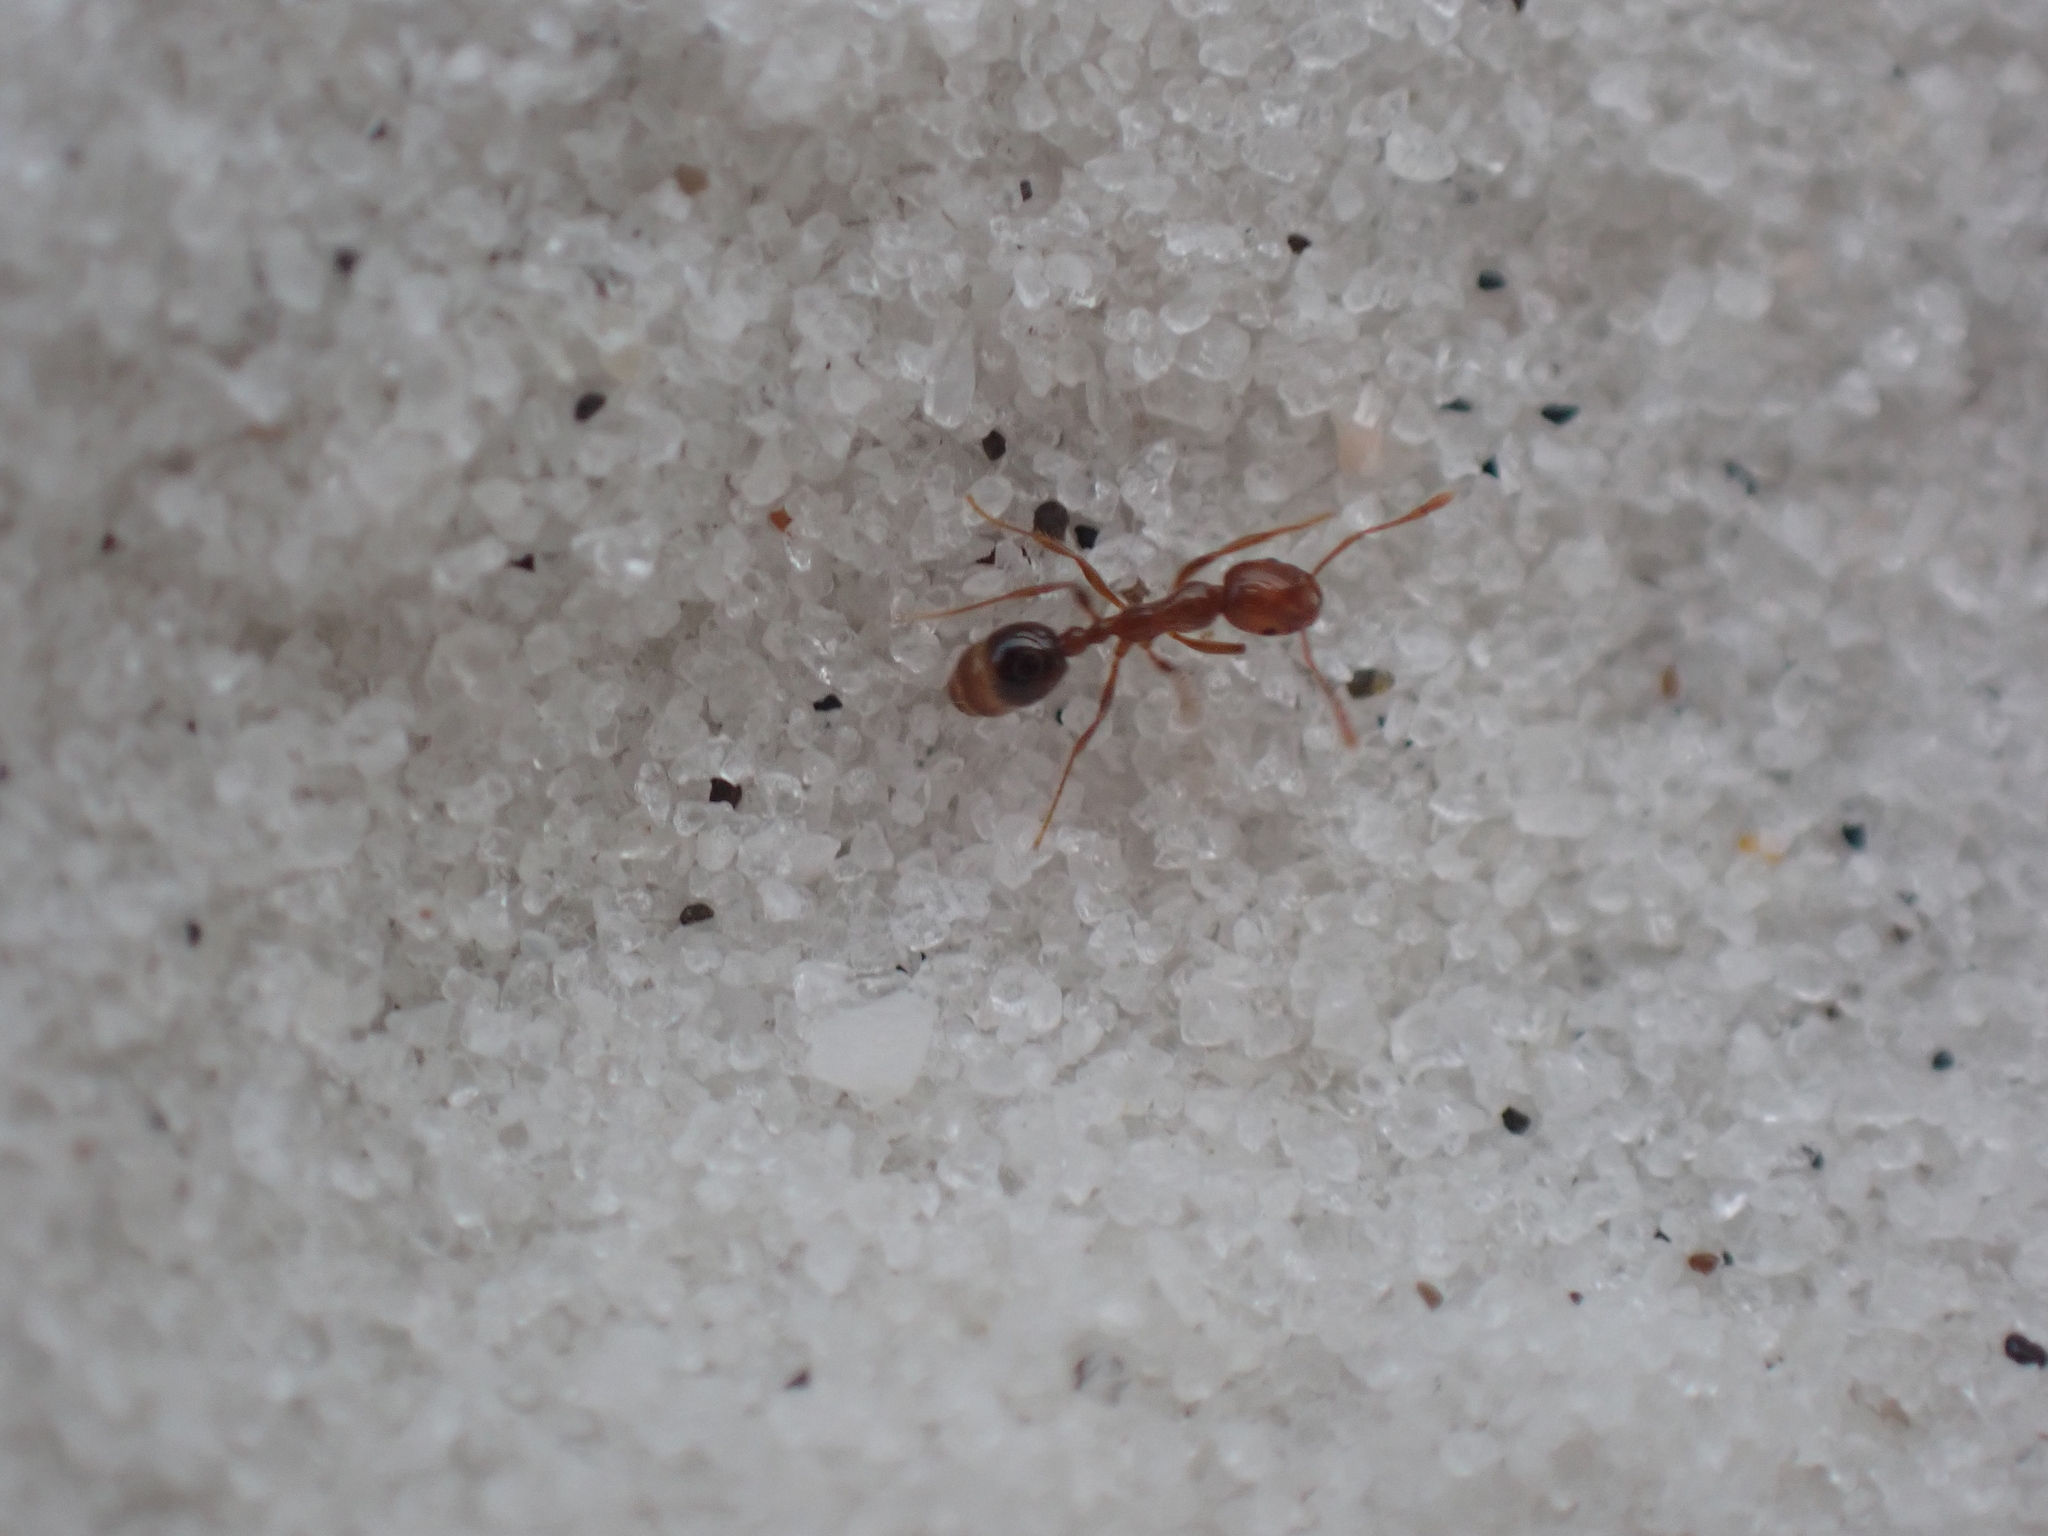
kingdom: Animalia
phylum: Arthropoda
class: Insecta
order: Hymenoptera
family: Formicidae
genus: Solenopsis
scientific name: Solenopsis invicta
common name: Red imported fire ant
